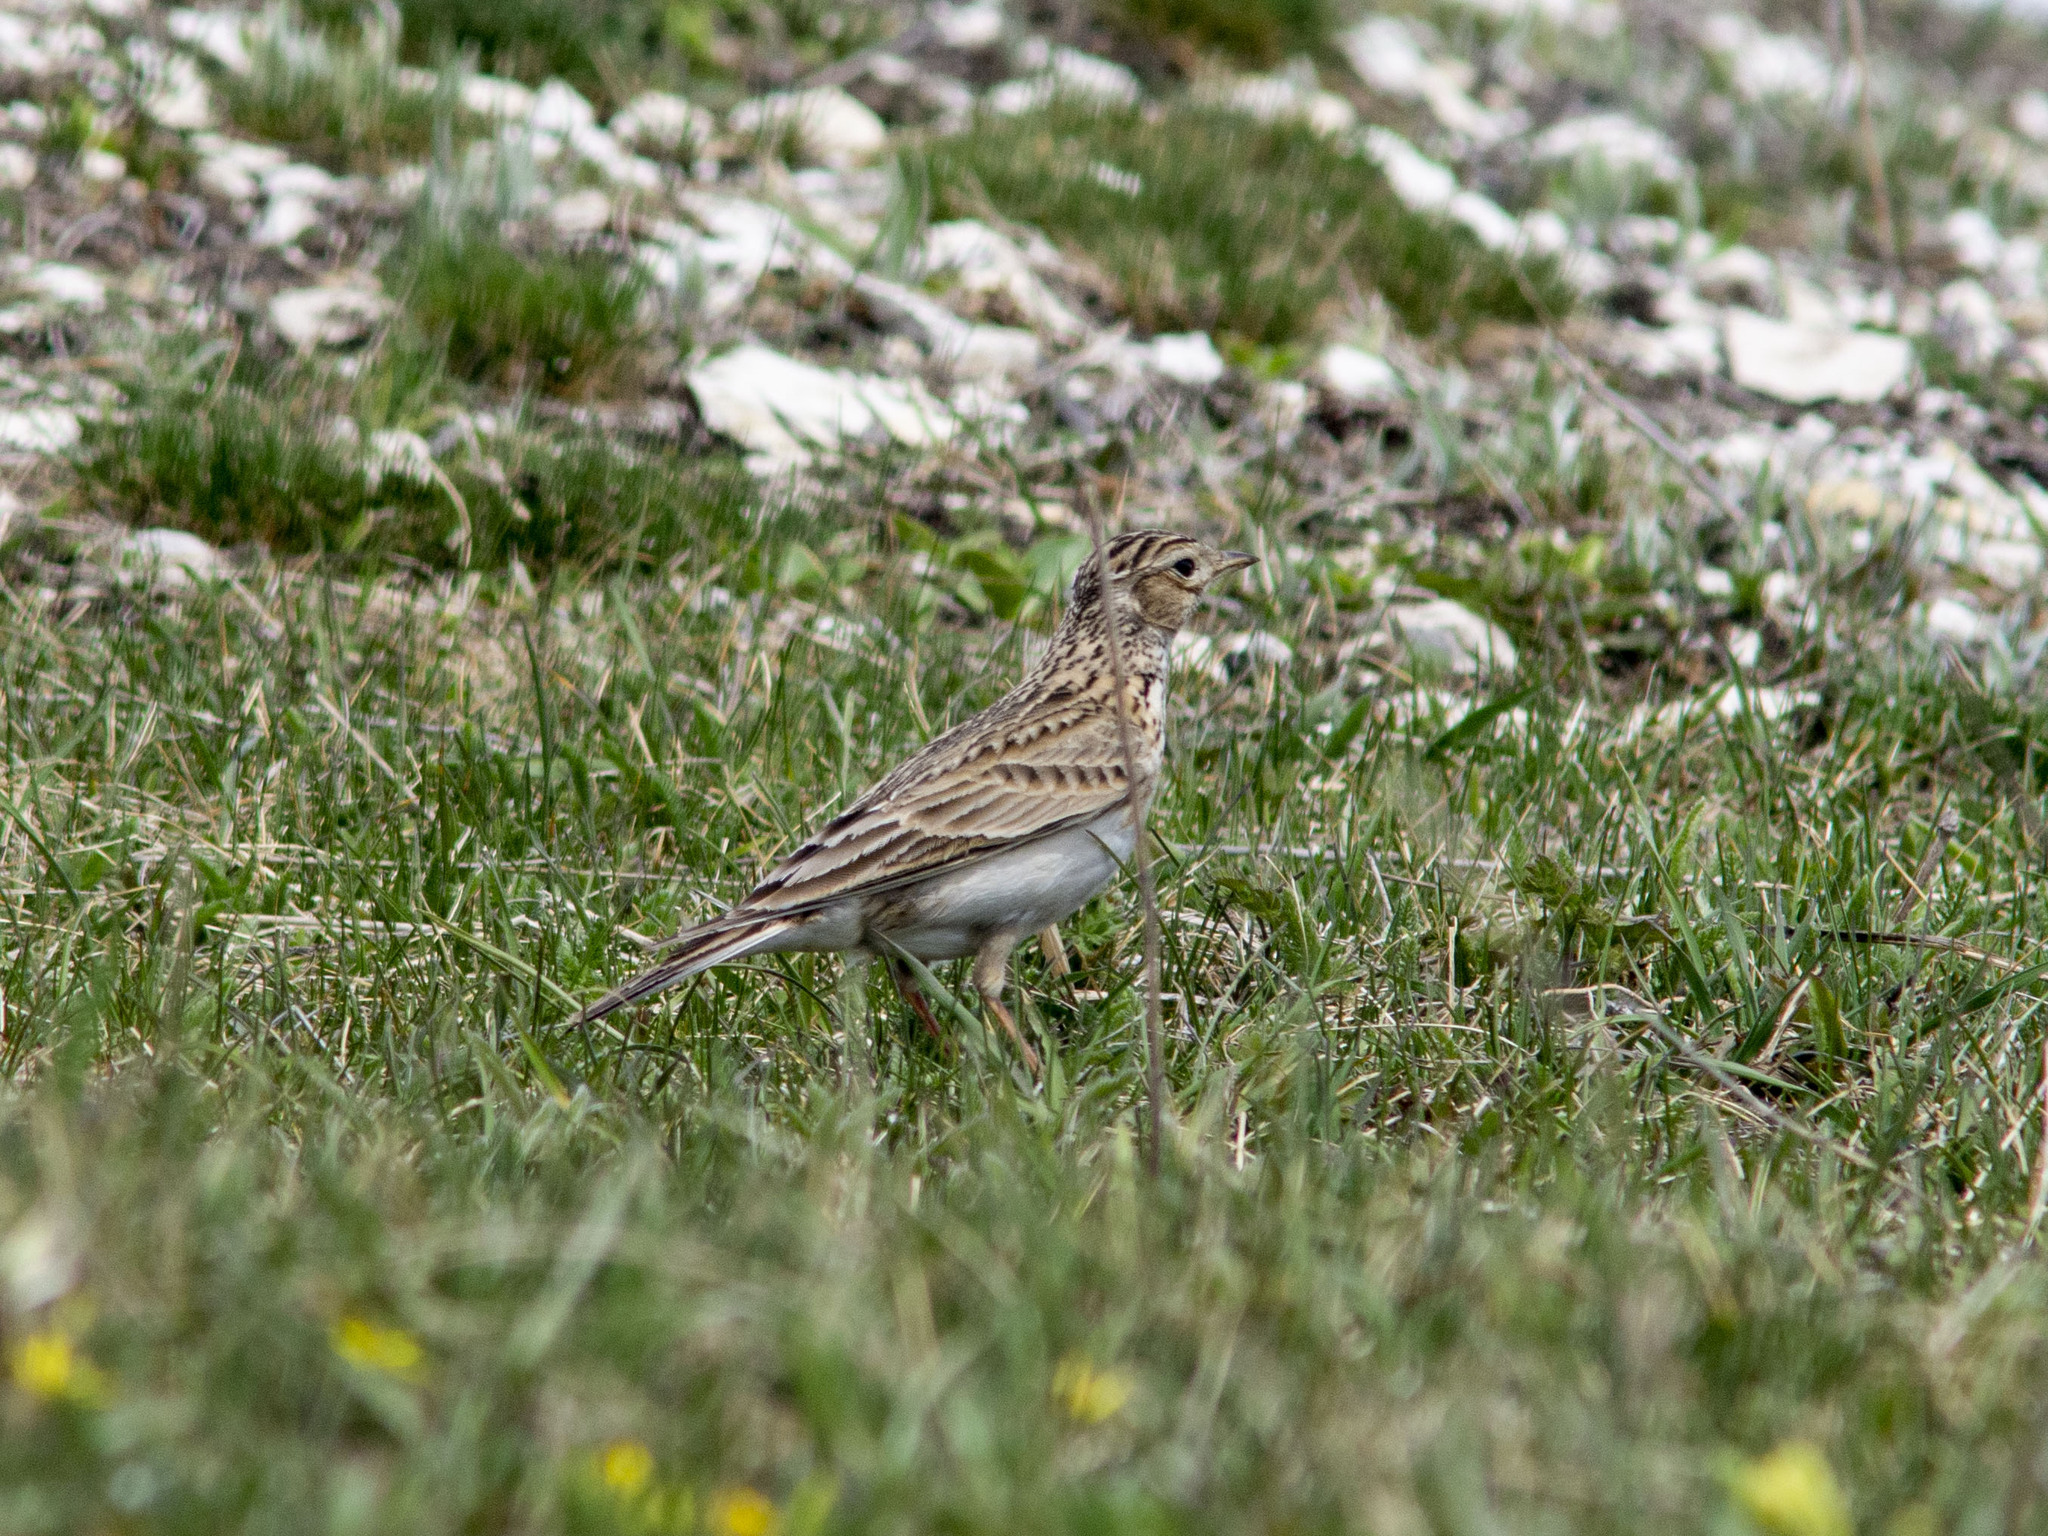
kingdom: Animalia
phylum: Chordata
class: Aves
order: Passeriformes
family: Alaudidae
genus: Alauda
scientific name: Alauda arvensis
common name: Eurasian skylark
